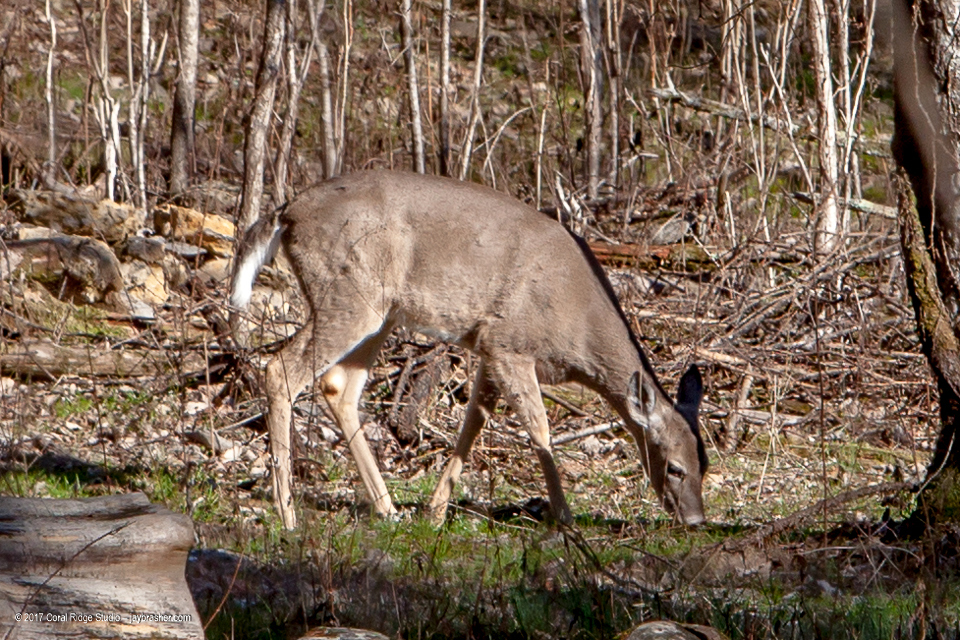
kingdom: Animalia
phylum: Chordata
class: Mammalia
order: Artiodactyla
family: Cervidae
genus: Odocoileus
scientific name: Odocoileus virginianus
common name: White-tailed deer
